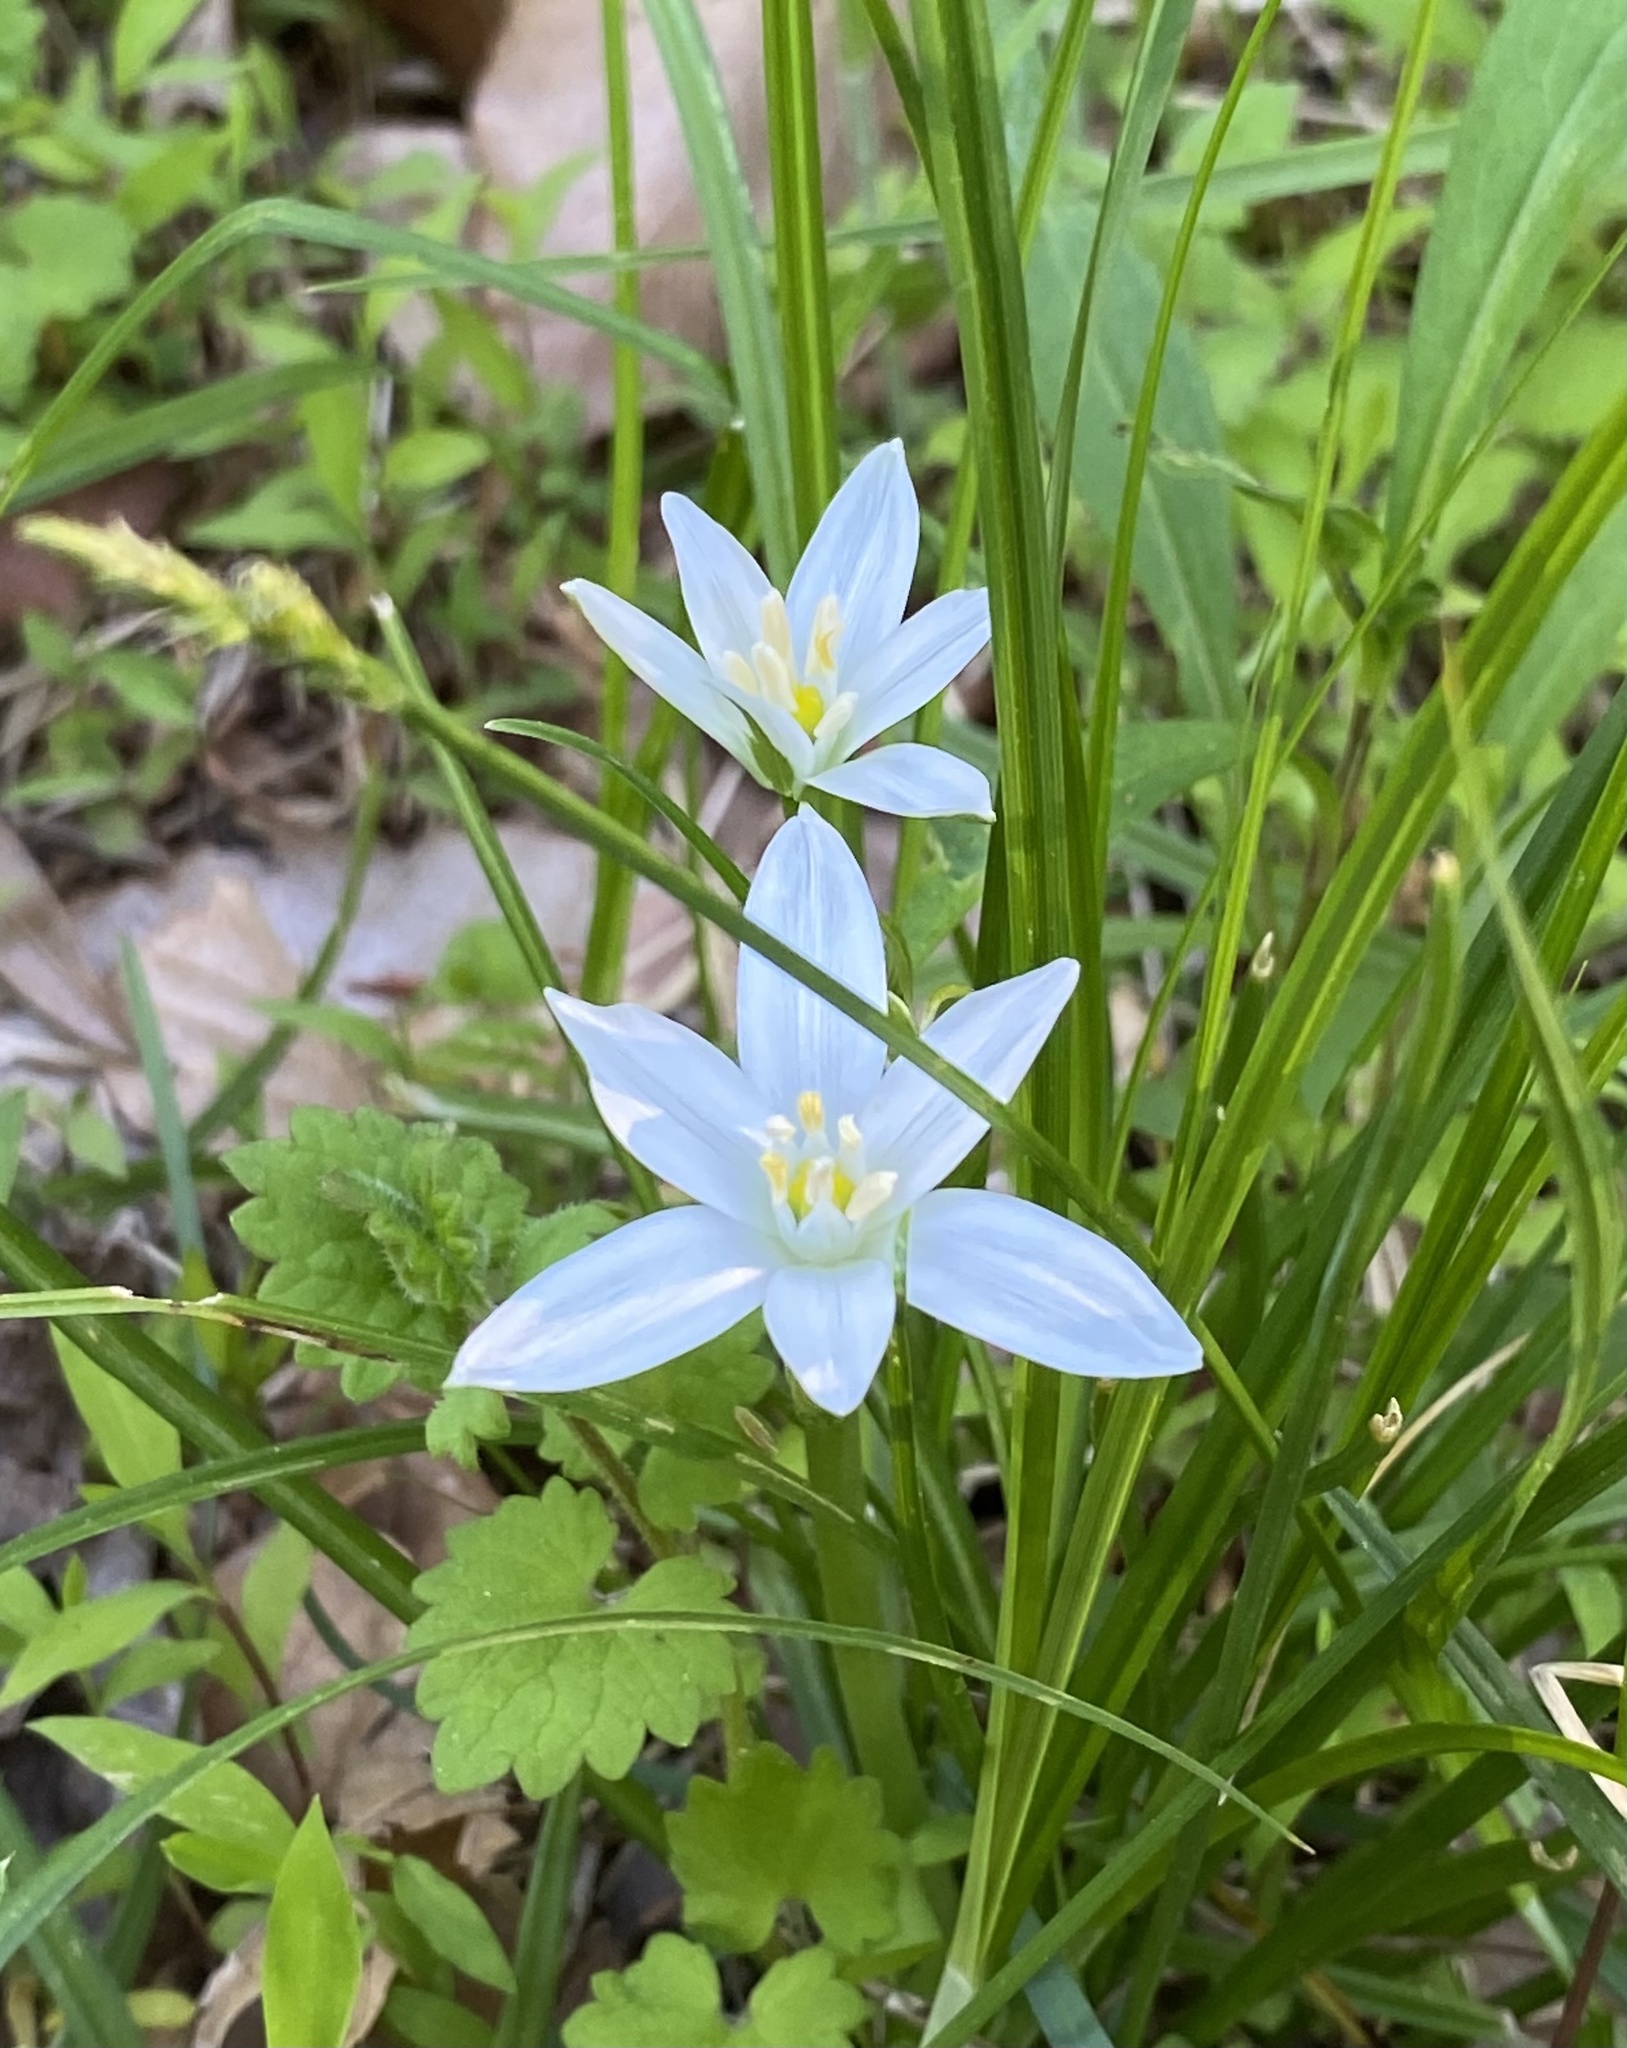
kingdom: Plantae
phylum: Tracheophyta
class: Liliopsida
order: Asparagales
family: Asparagaceae
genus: Ornithogalum
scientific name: Ornithogalum umbellatum
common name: Garden star-of-bethlehem
